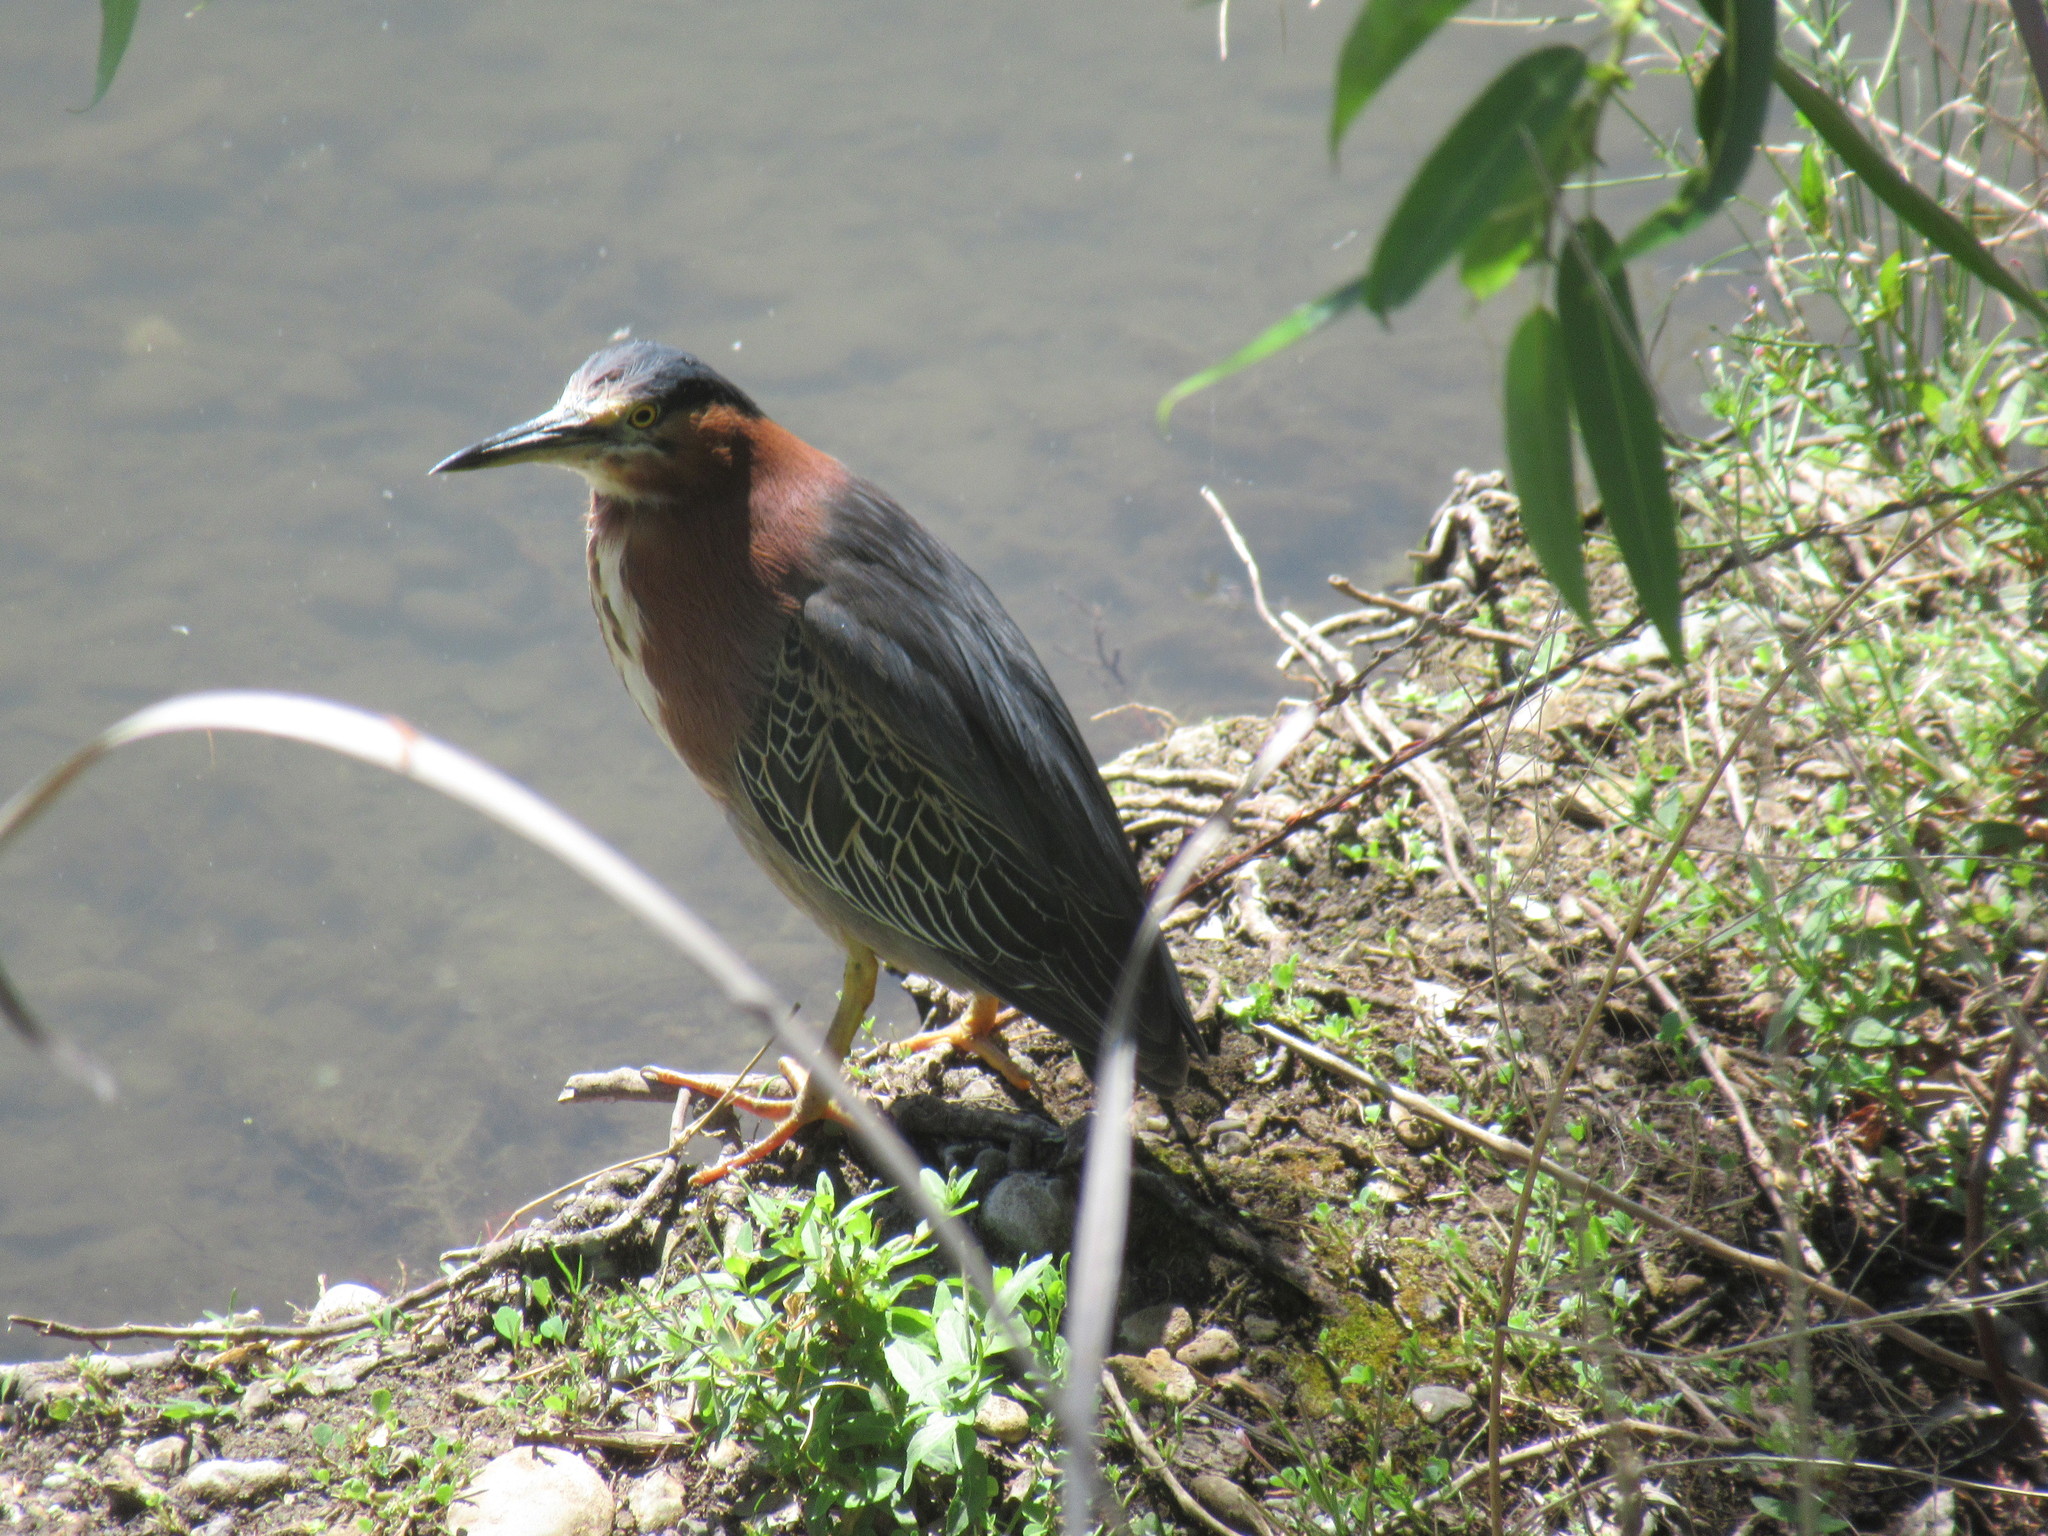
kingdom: Animalia
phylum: Chordata
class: Aves
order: Pelecaniformes
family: Ardeidae
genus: Butorides
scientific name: Butorides virescens
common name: Green heron
